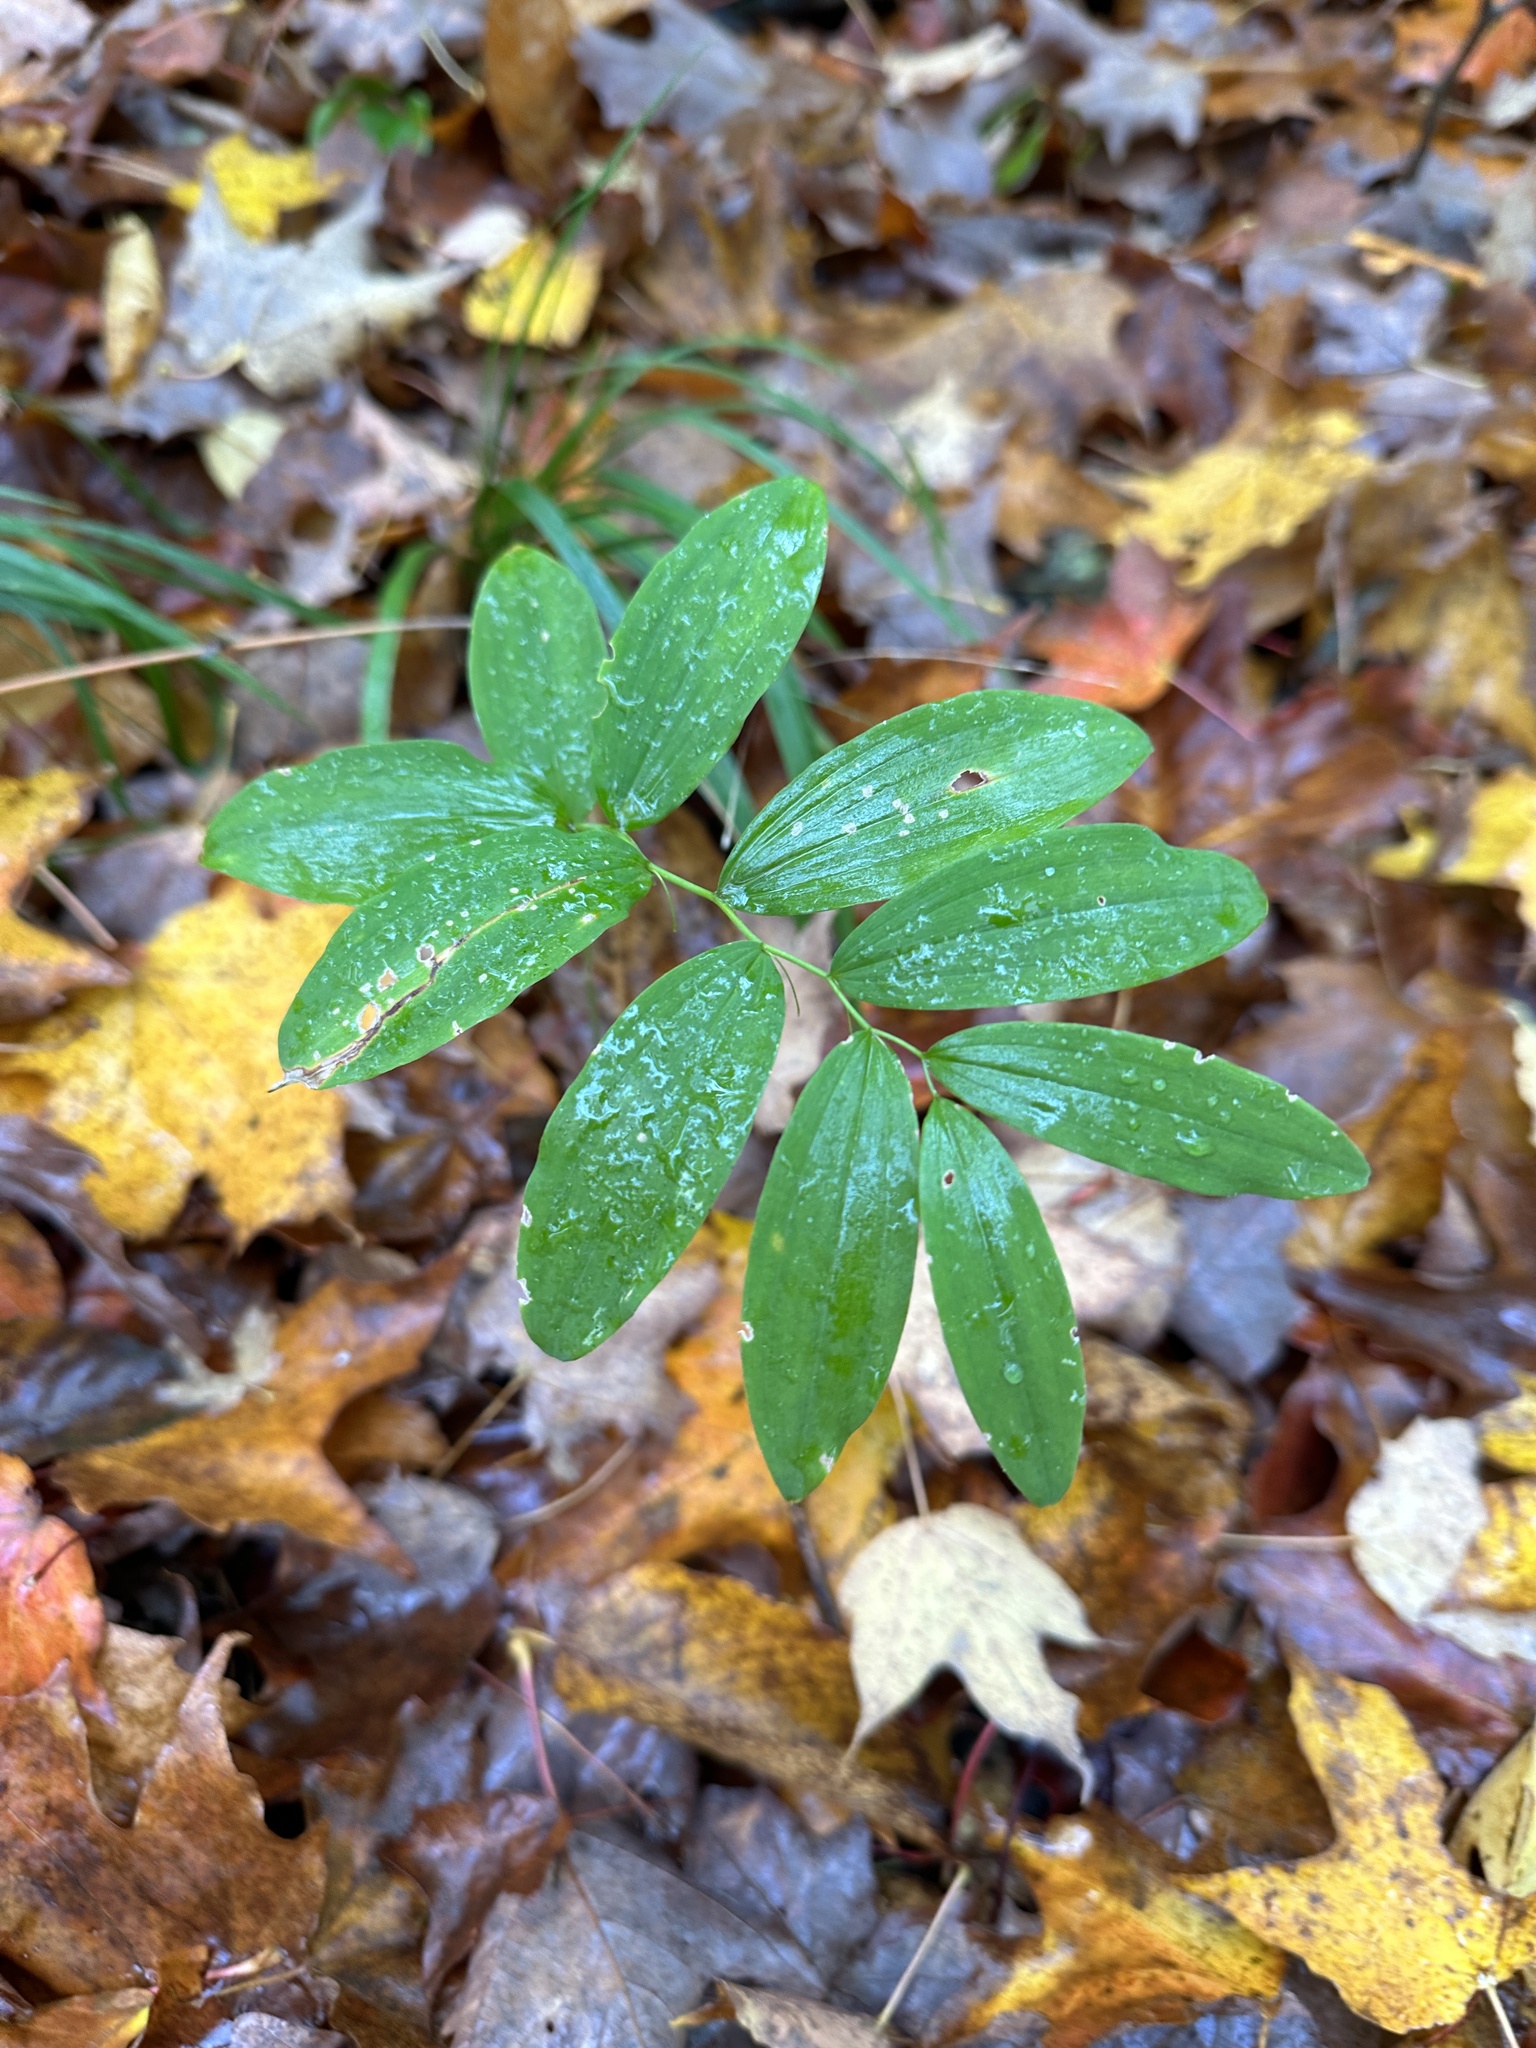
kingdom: Plantae
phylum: Tracheophyta
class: Liliopsida
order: Asparagales
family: Asparagaceae
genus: Polygonatum
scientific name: Polygonatum pubescens
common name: Downy solomon's seal
